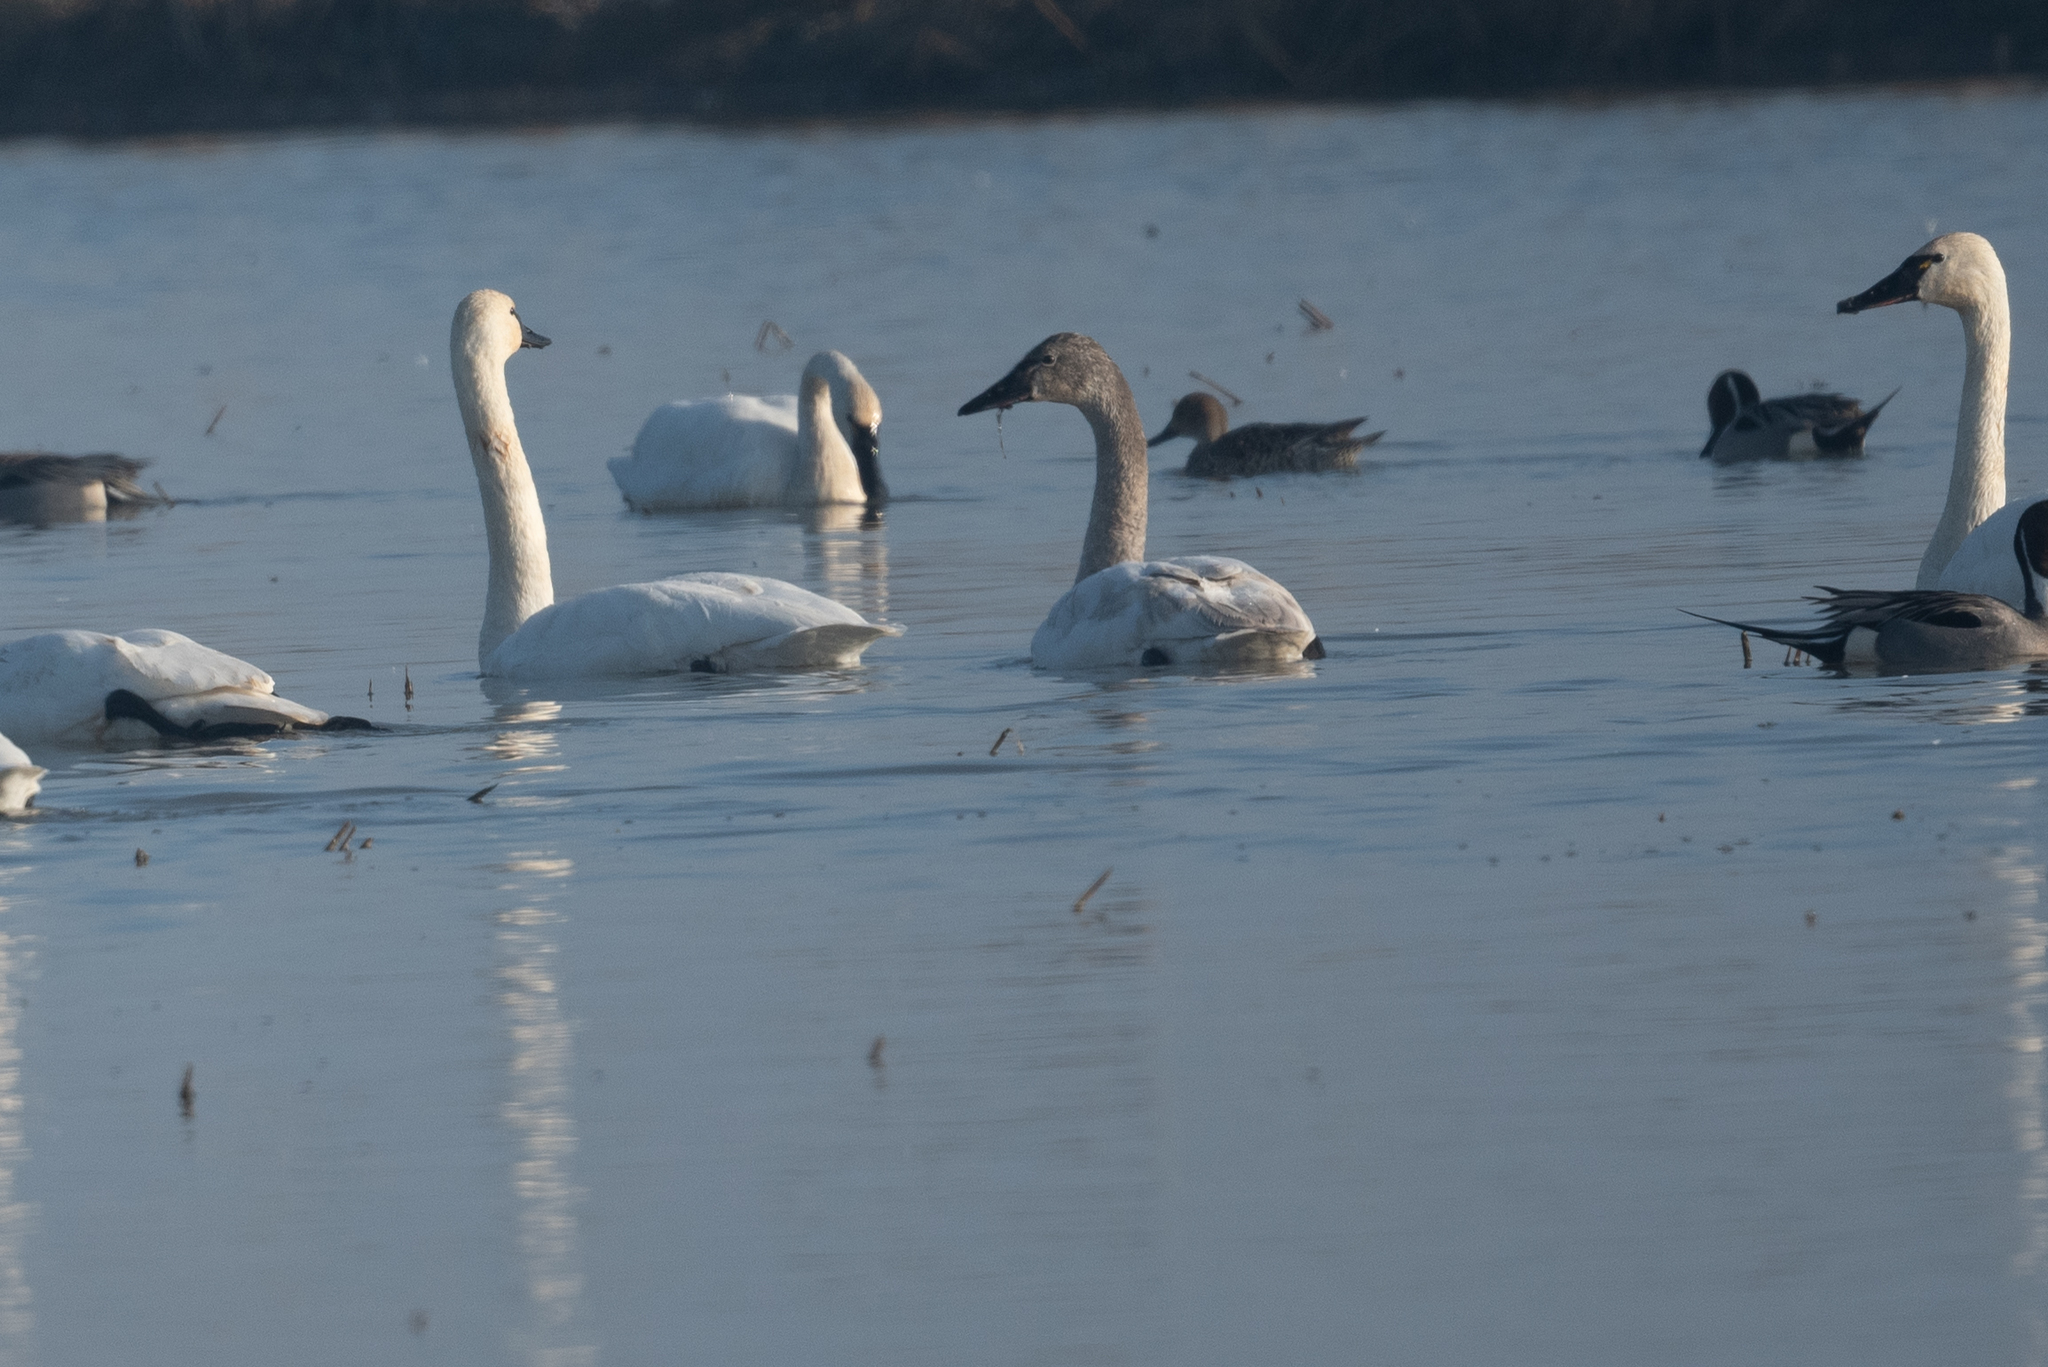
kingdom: Animalia
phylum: Chordata
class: Aves
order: Anseriformes
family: Anatidae
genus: Cygnus
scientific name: Cygnus columbianus
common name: Tundra swan
